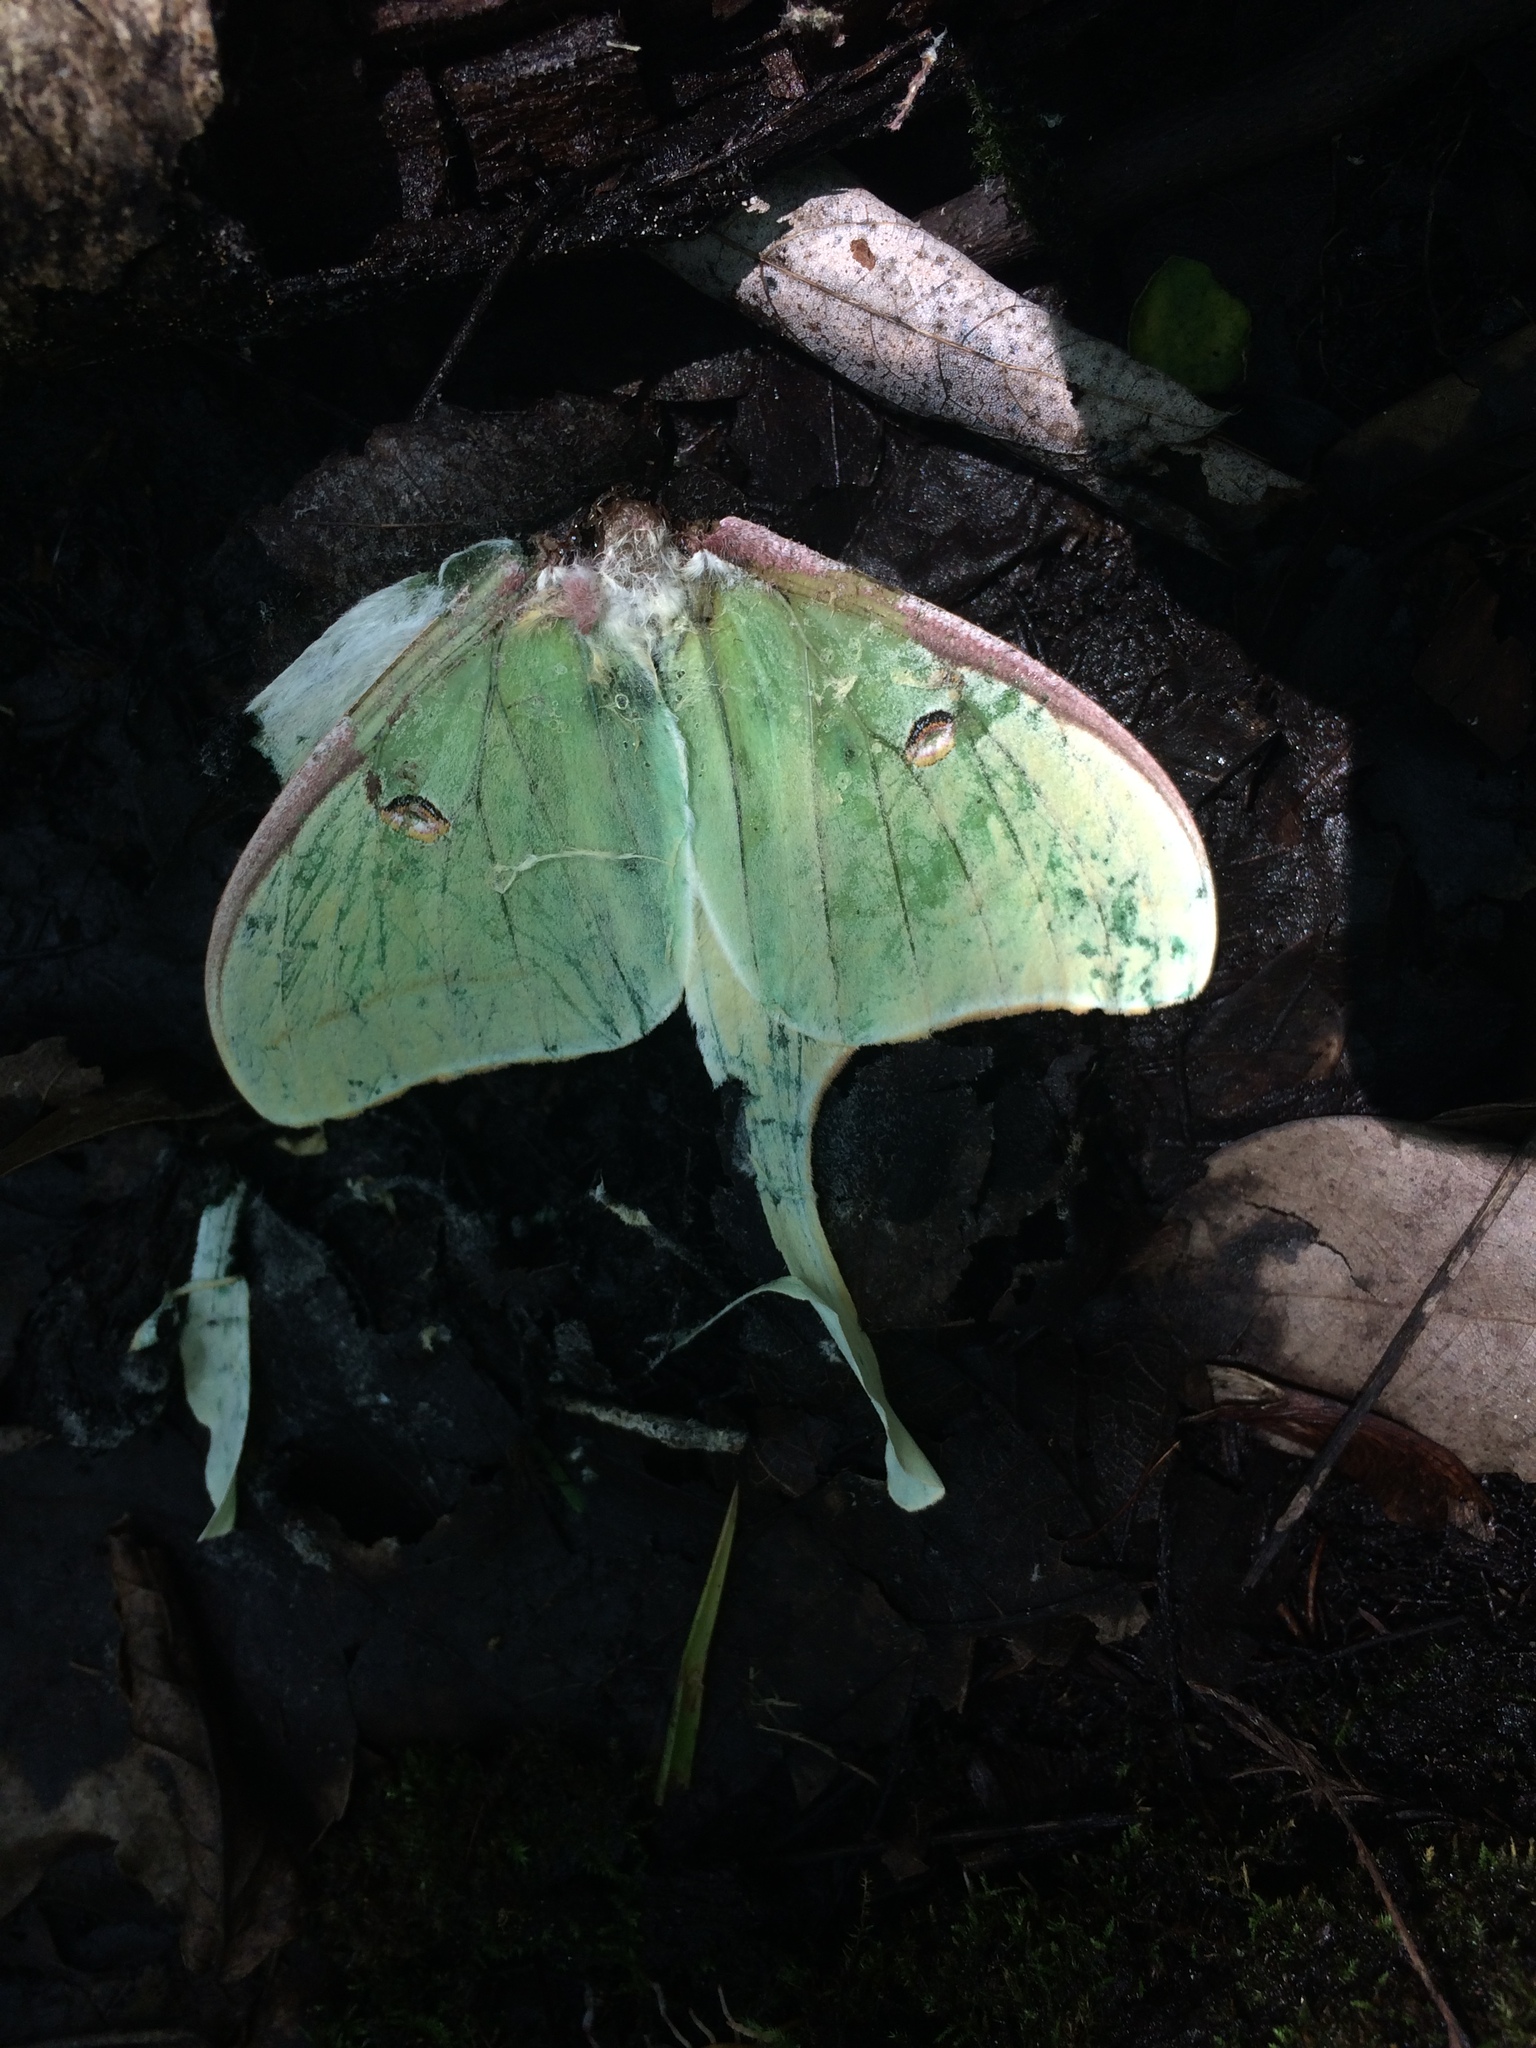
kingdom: Animalia
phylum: Arthropoda
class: Insecta
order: Lepidoptera
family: Saturniidae
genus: Actias
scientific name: Actias luna
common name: Luna moth
